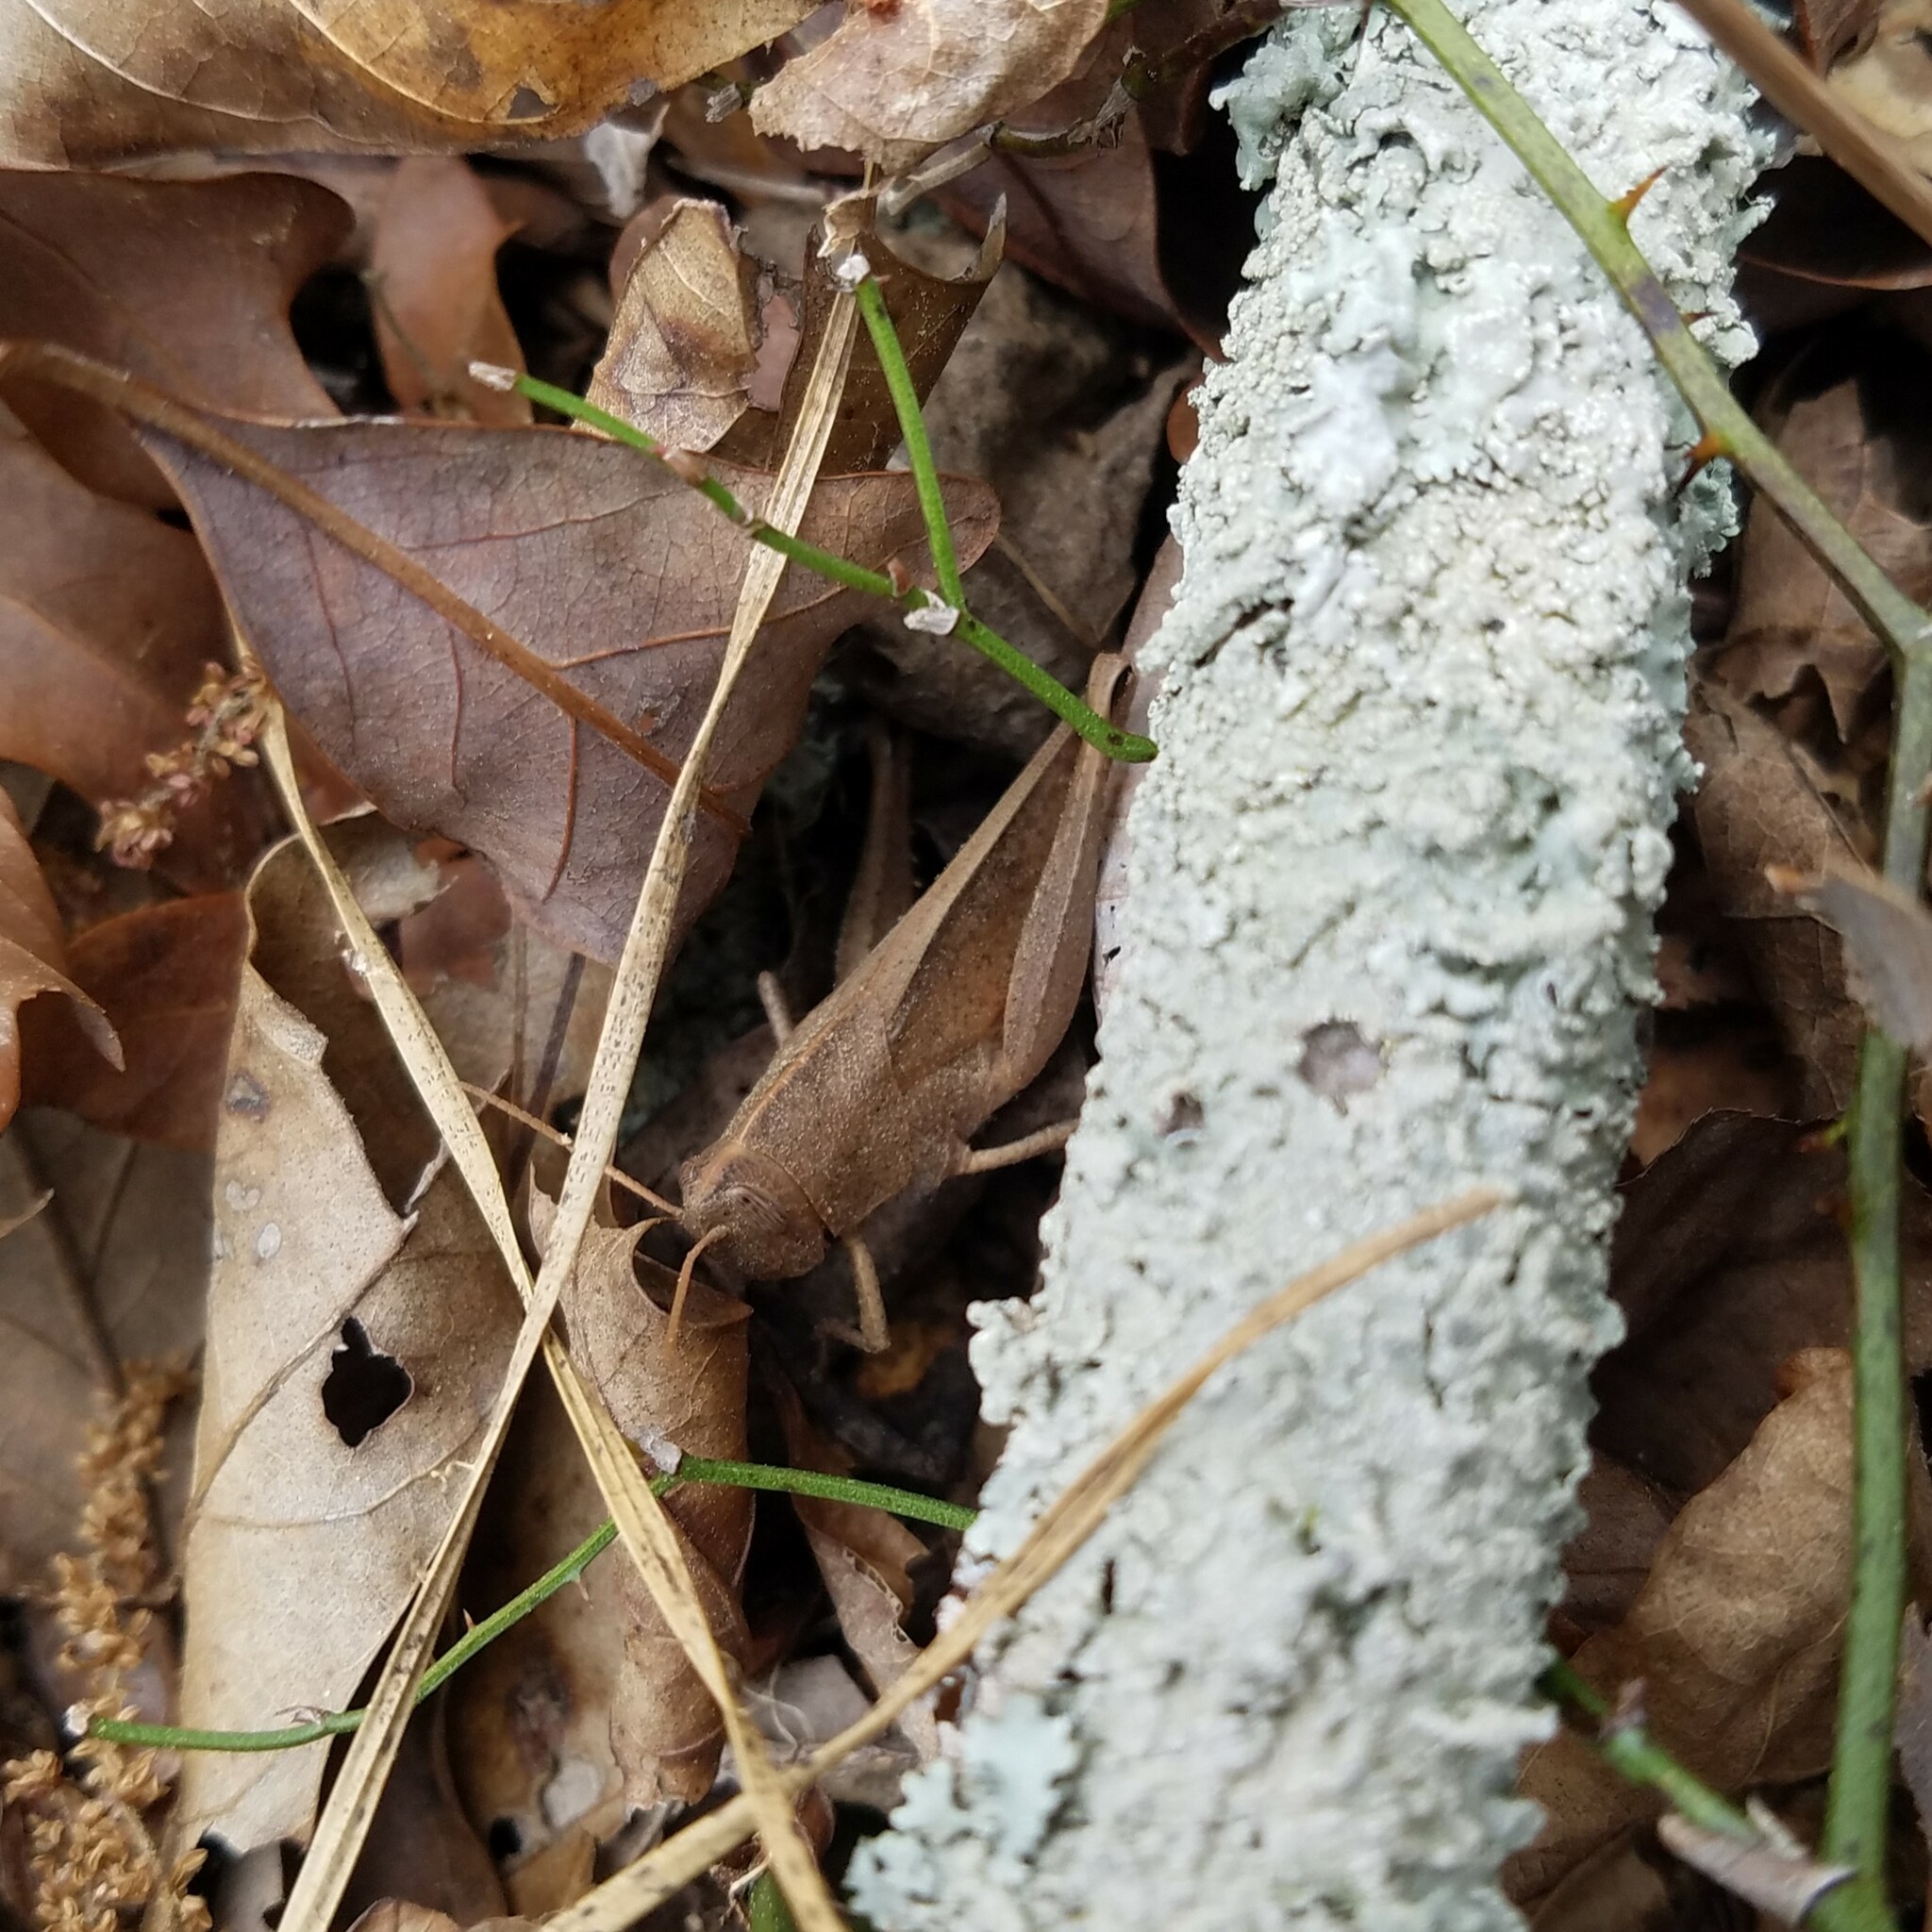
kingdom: Animalia
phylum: Arthropoda
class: Insecta
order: Orthoptera
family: Acrididae
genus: Schistocerca
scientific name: Schistocerca damnifica
